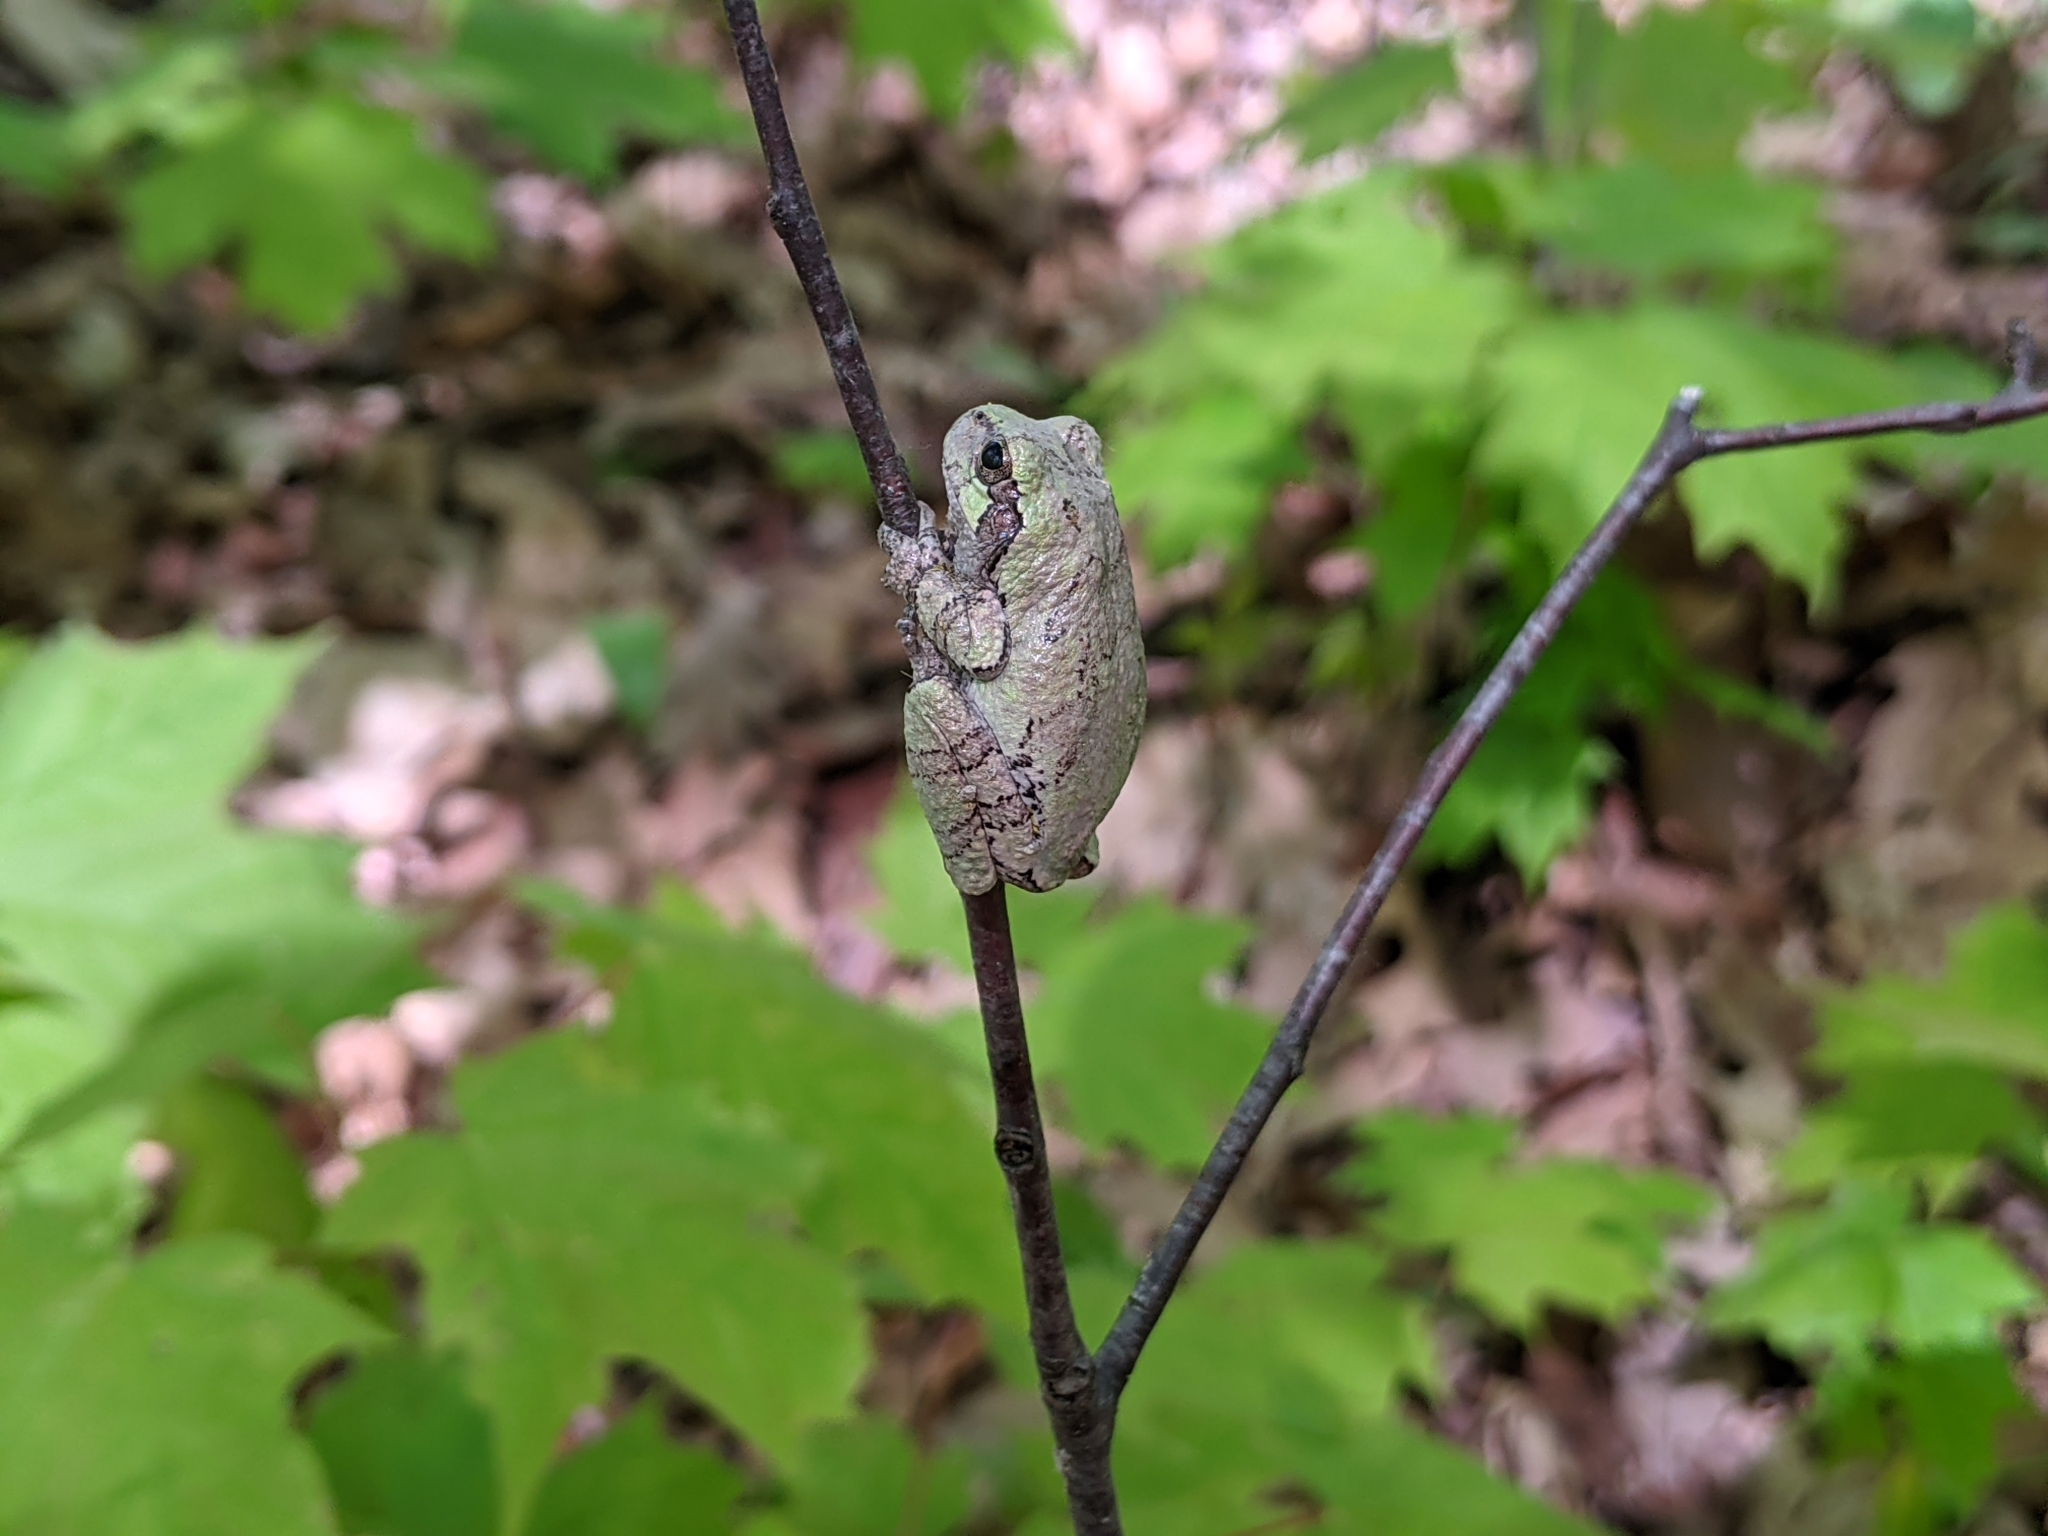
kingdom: Animalia
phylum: Chordata
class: Amphibia
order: Anura
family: Hylidae
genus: Hyla
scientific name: Hyla
